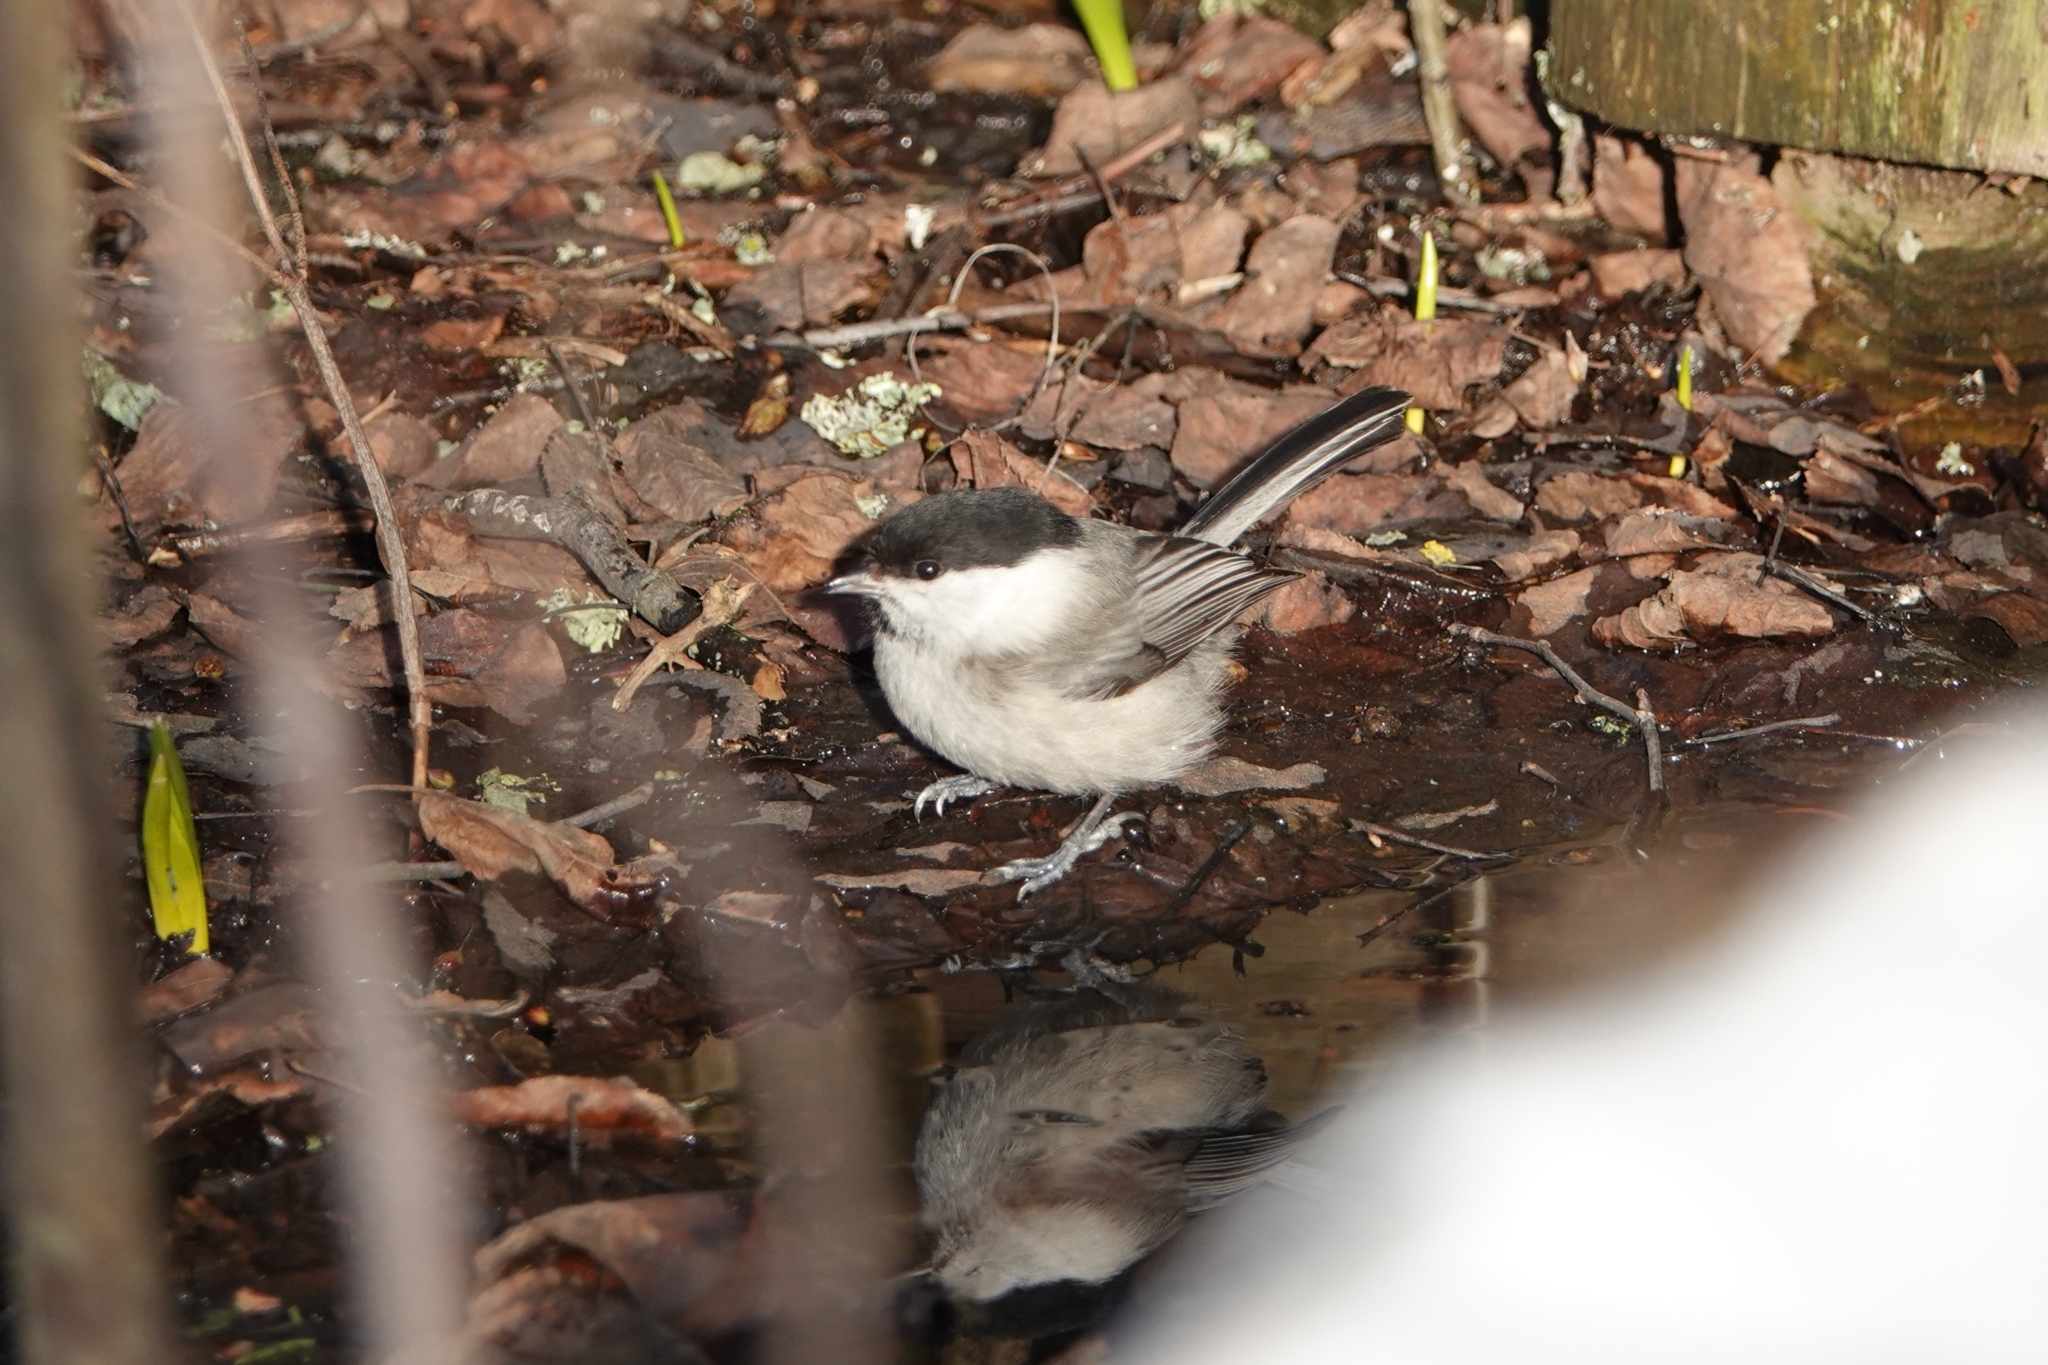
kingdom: Animalia
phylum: Chordata
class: Aves
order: Passeriformes
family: Paridae
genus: Poecile
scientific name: Poecile montanus
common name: Willow tit
